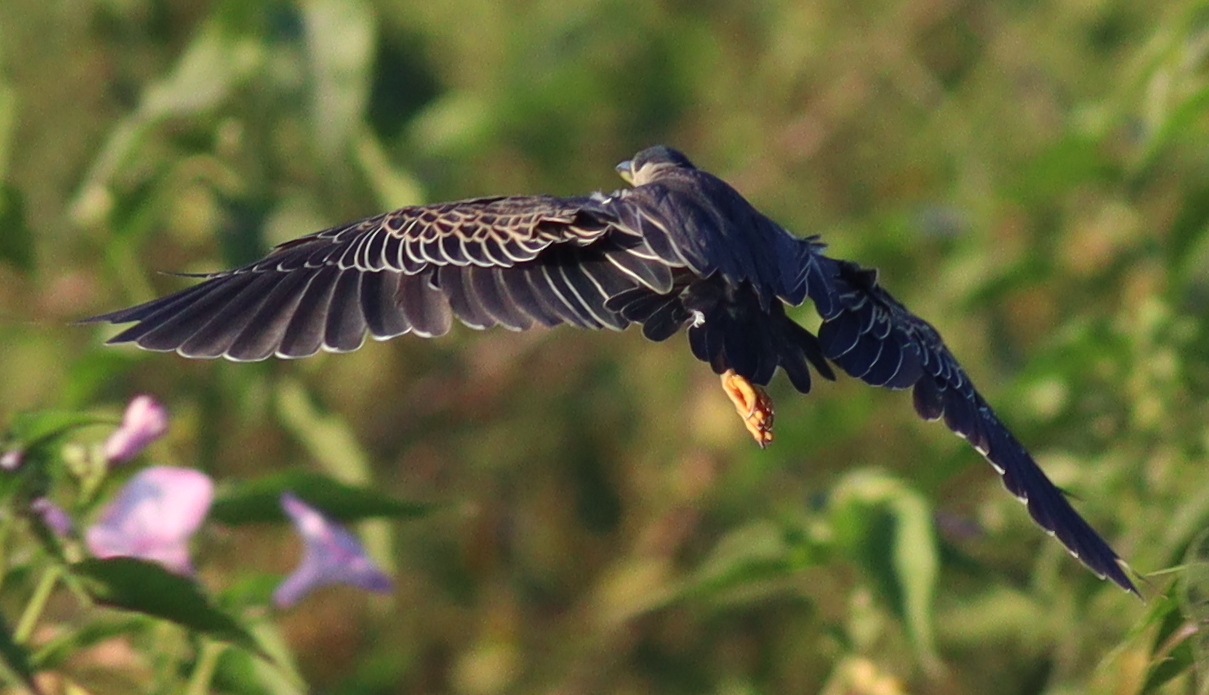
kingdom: Animalia
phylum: Chordata
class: Aves
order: Pelecaniformes
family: Ardeidae
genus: Butorides
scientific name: Butorides striata
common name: Striated heron
